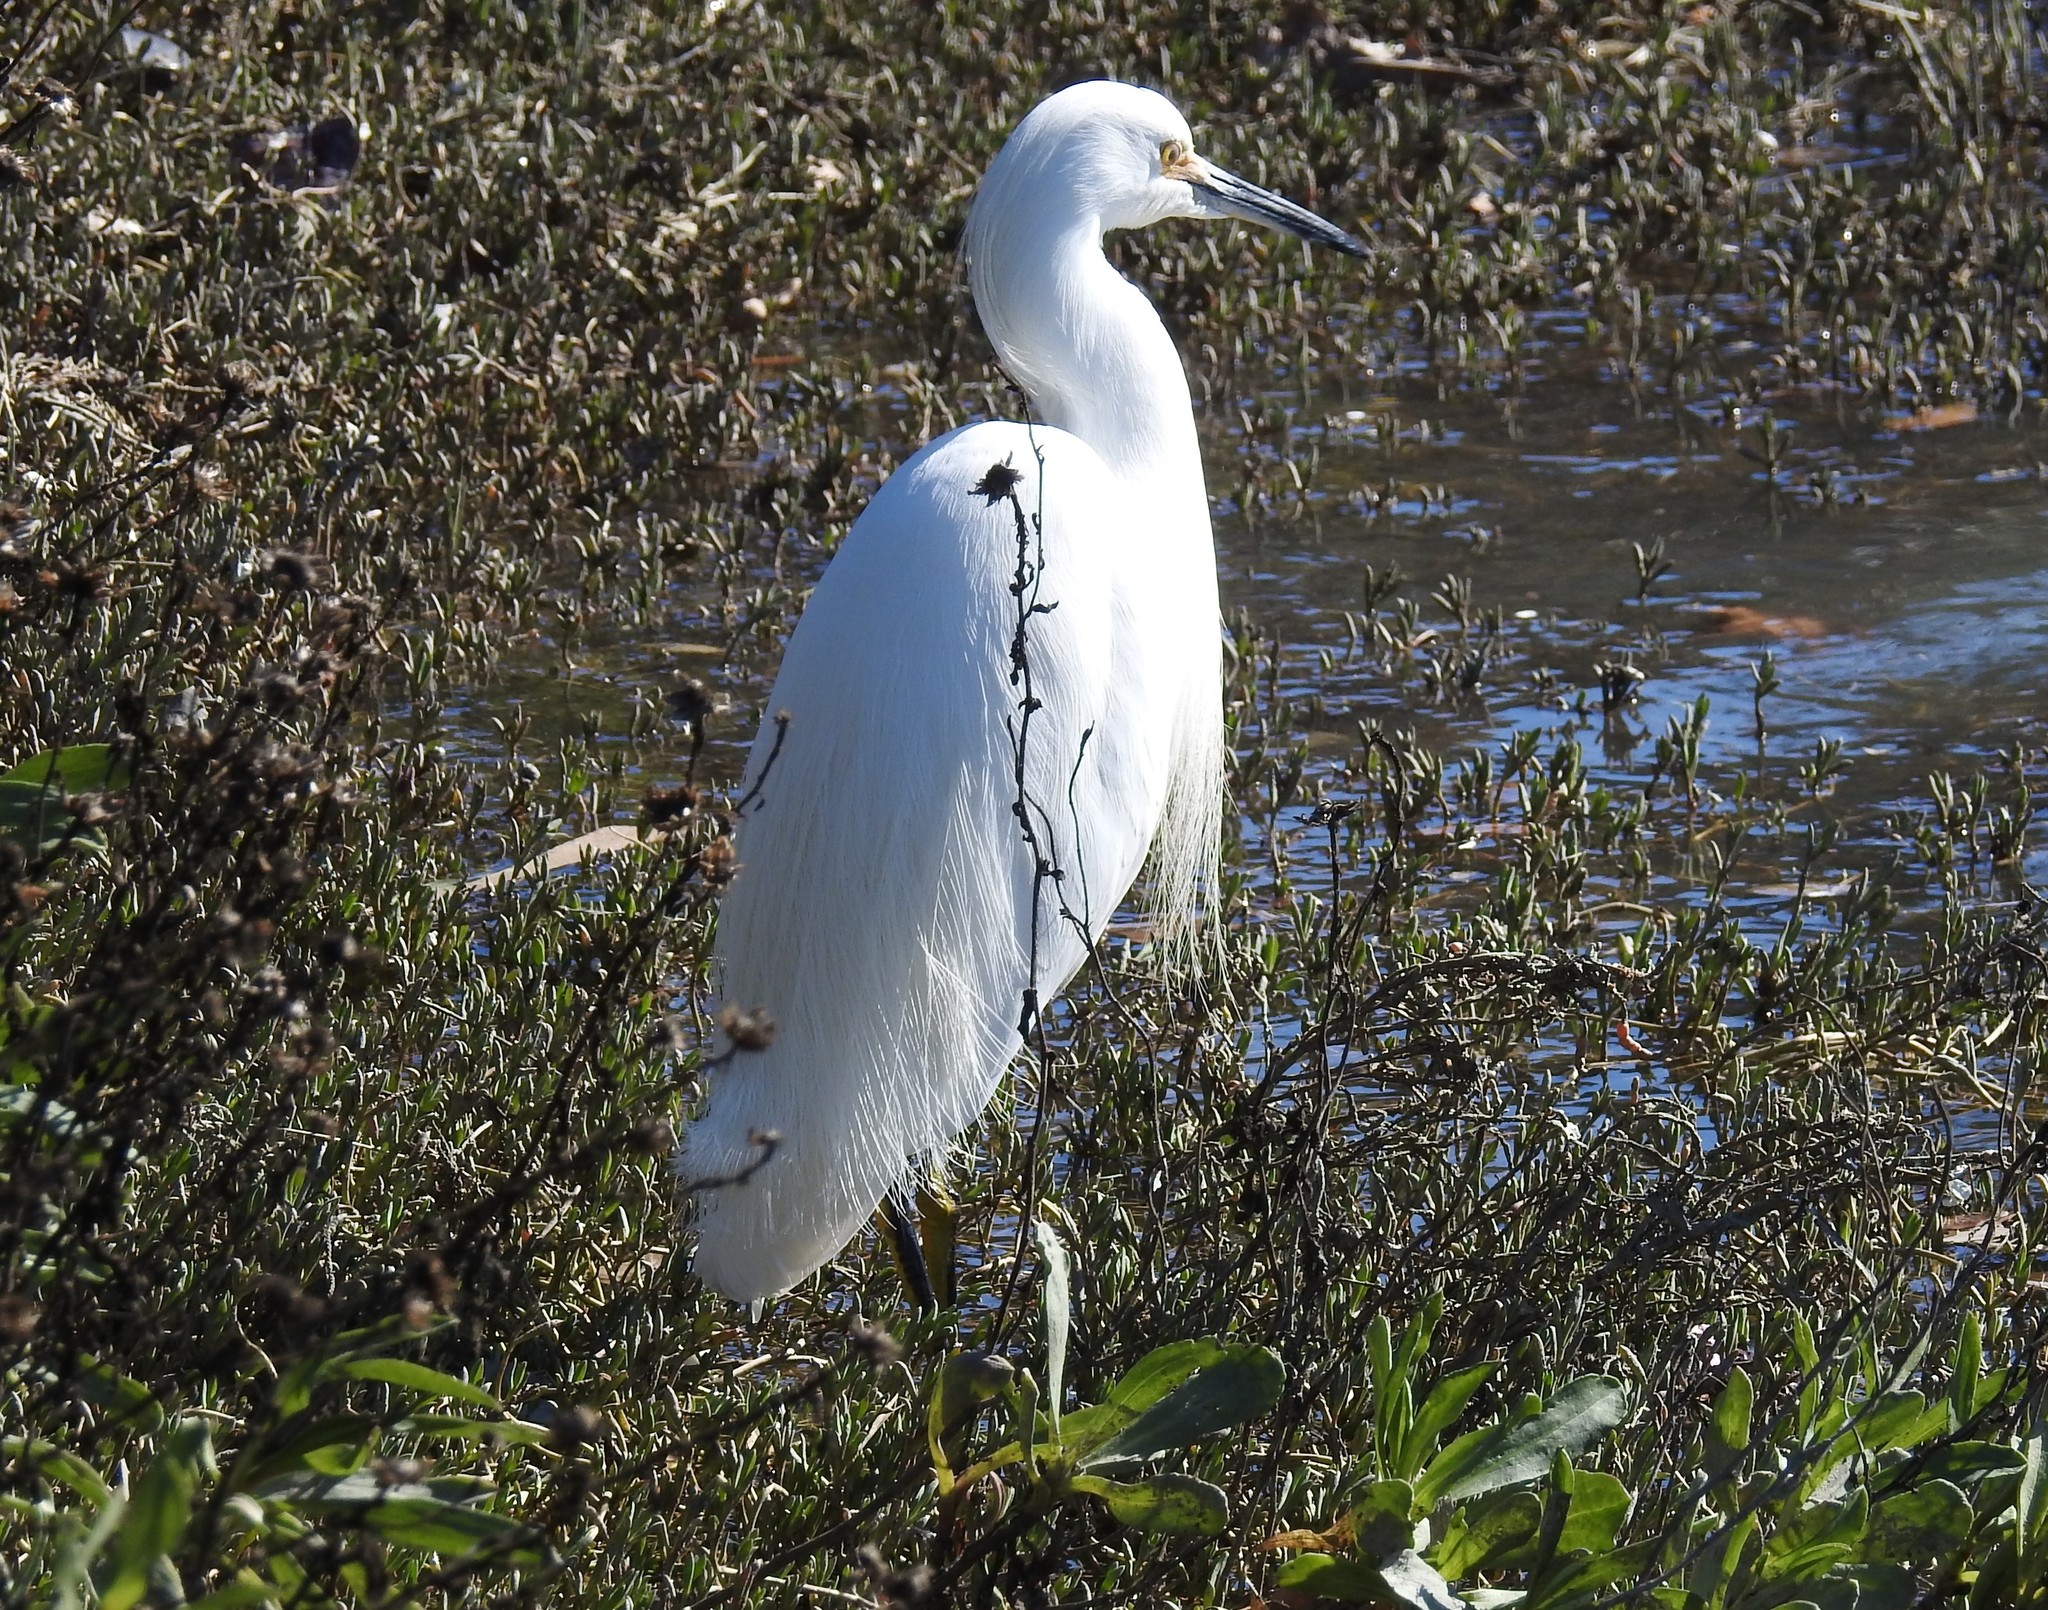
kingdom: Animalia
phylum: Chordata
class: Aves
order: Pelecaniformes
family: Ardeidae
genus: Egretta
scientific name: Egretta thula
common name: Snowy egret
